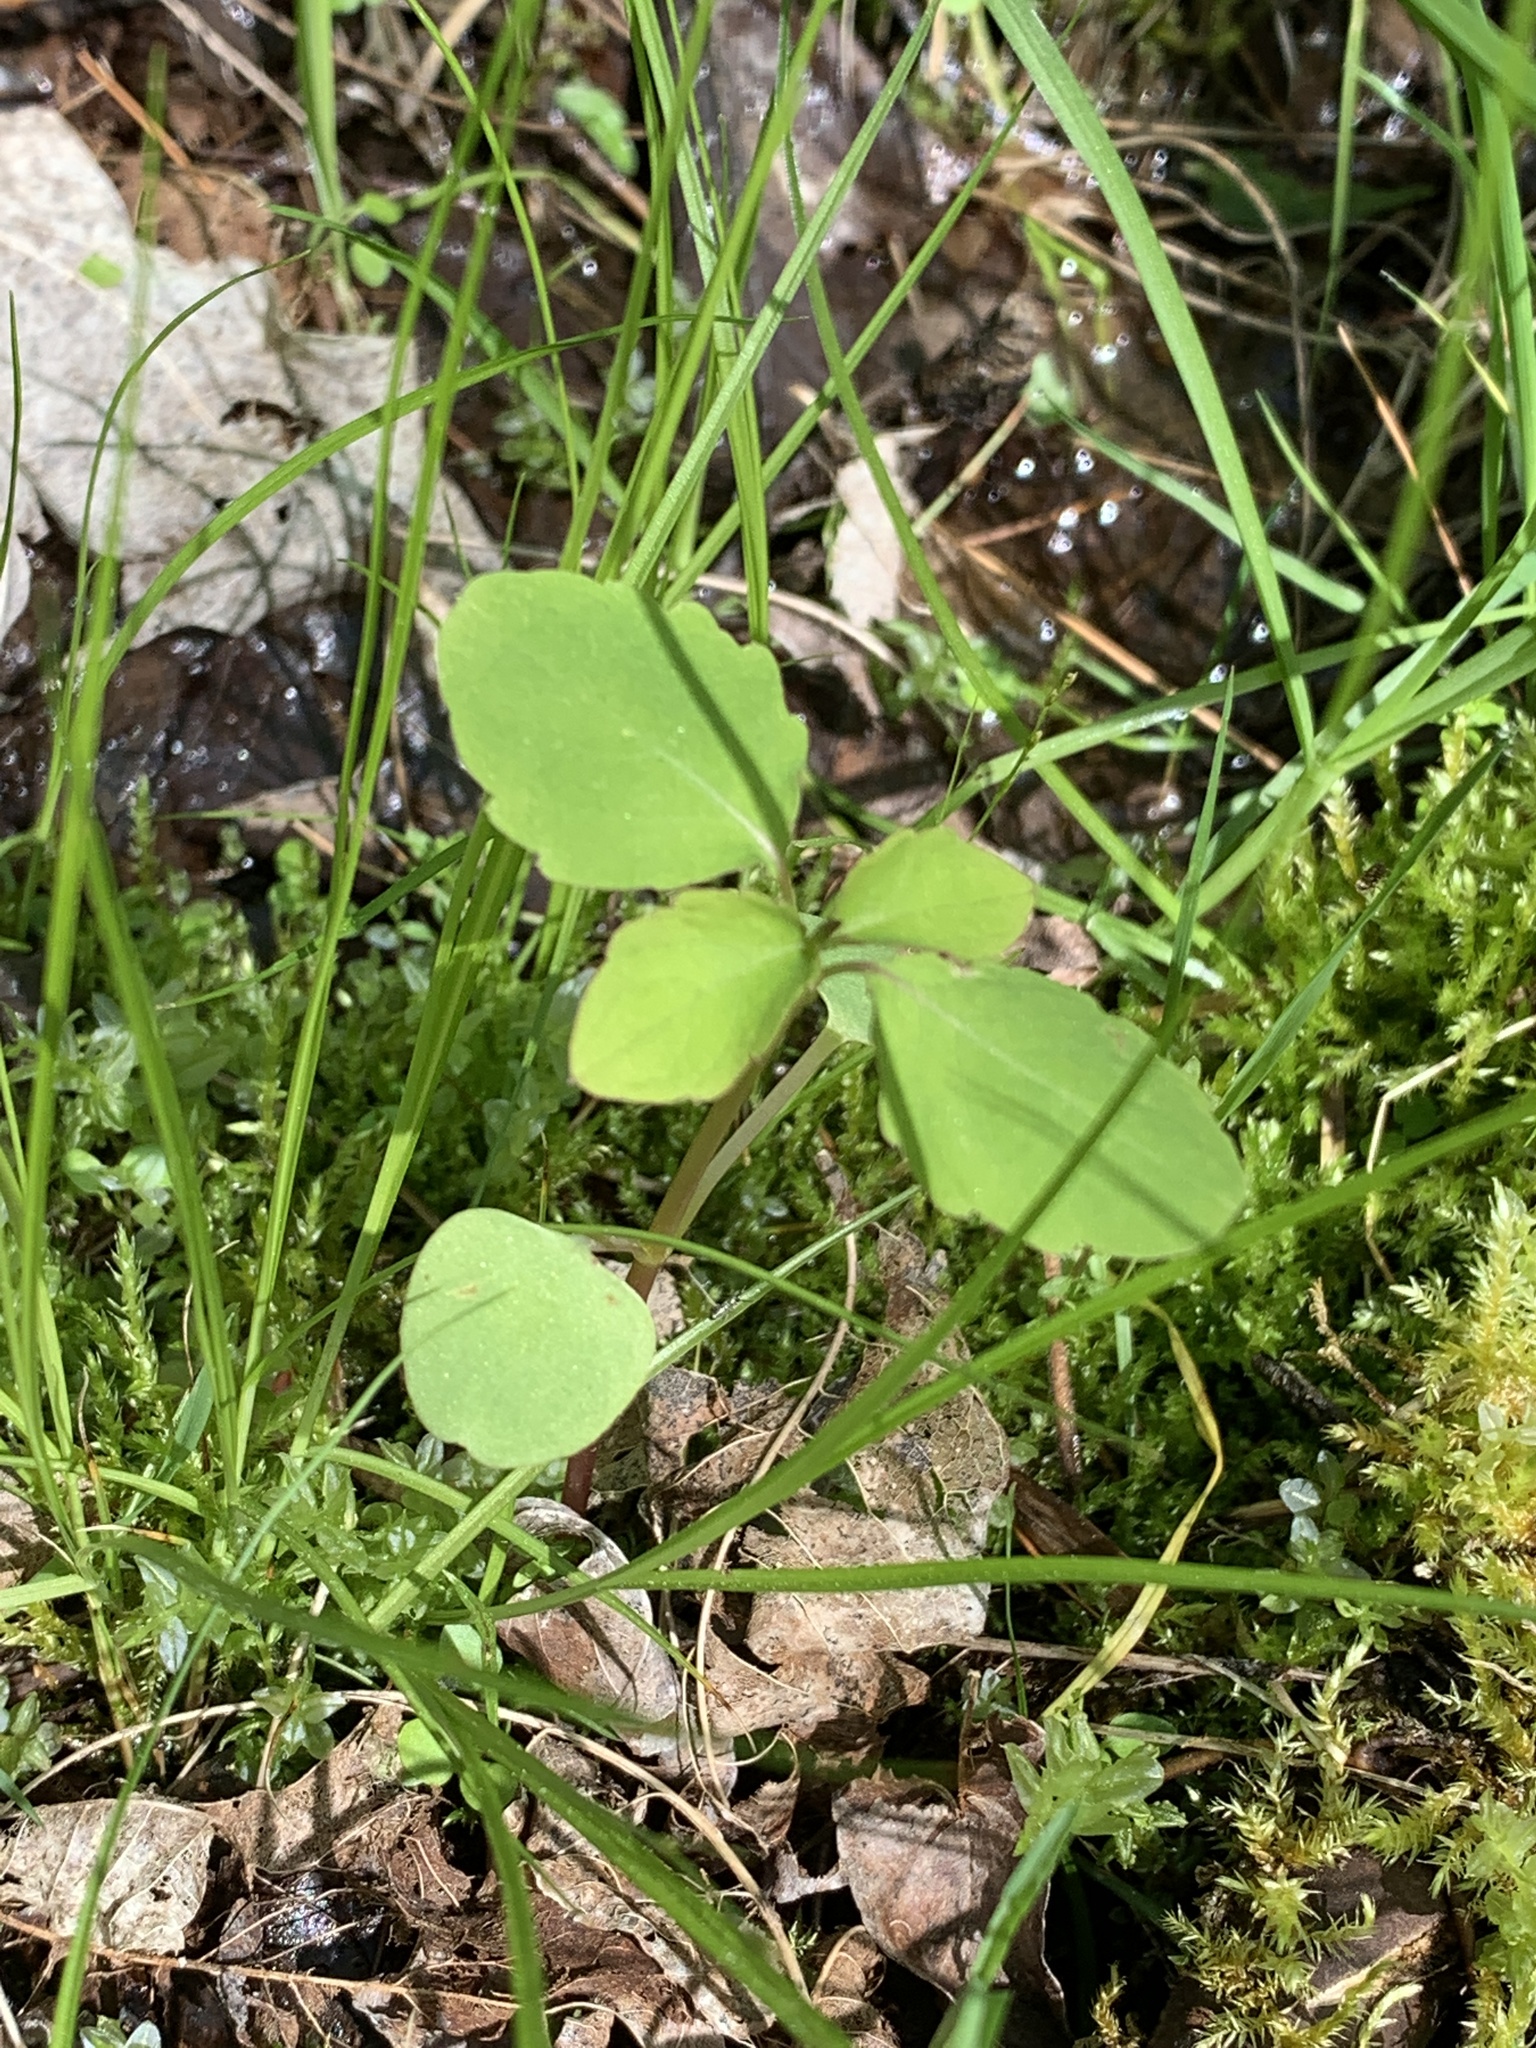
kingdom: Plantae
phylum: Tracheophyta
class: Magnoliopsida
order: Ericales
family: Balsaminaceae
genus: Impatiens
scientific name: Impatiens
